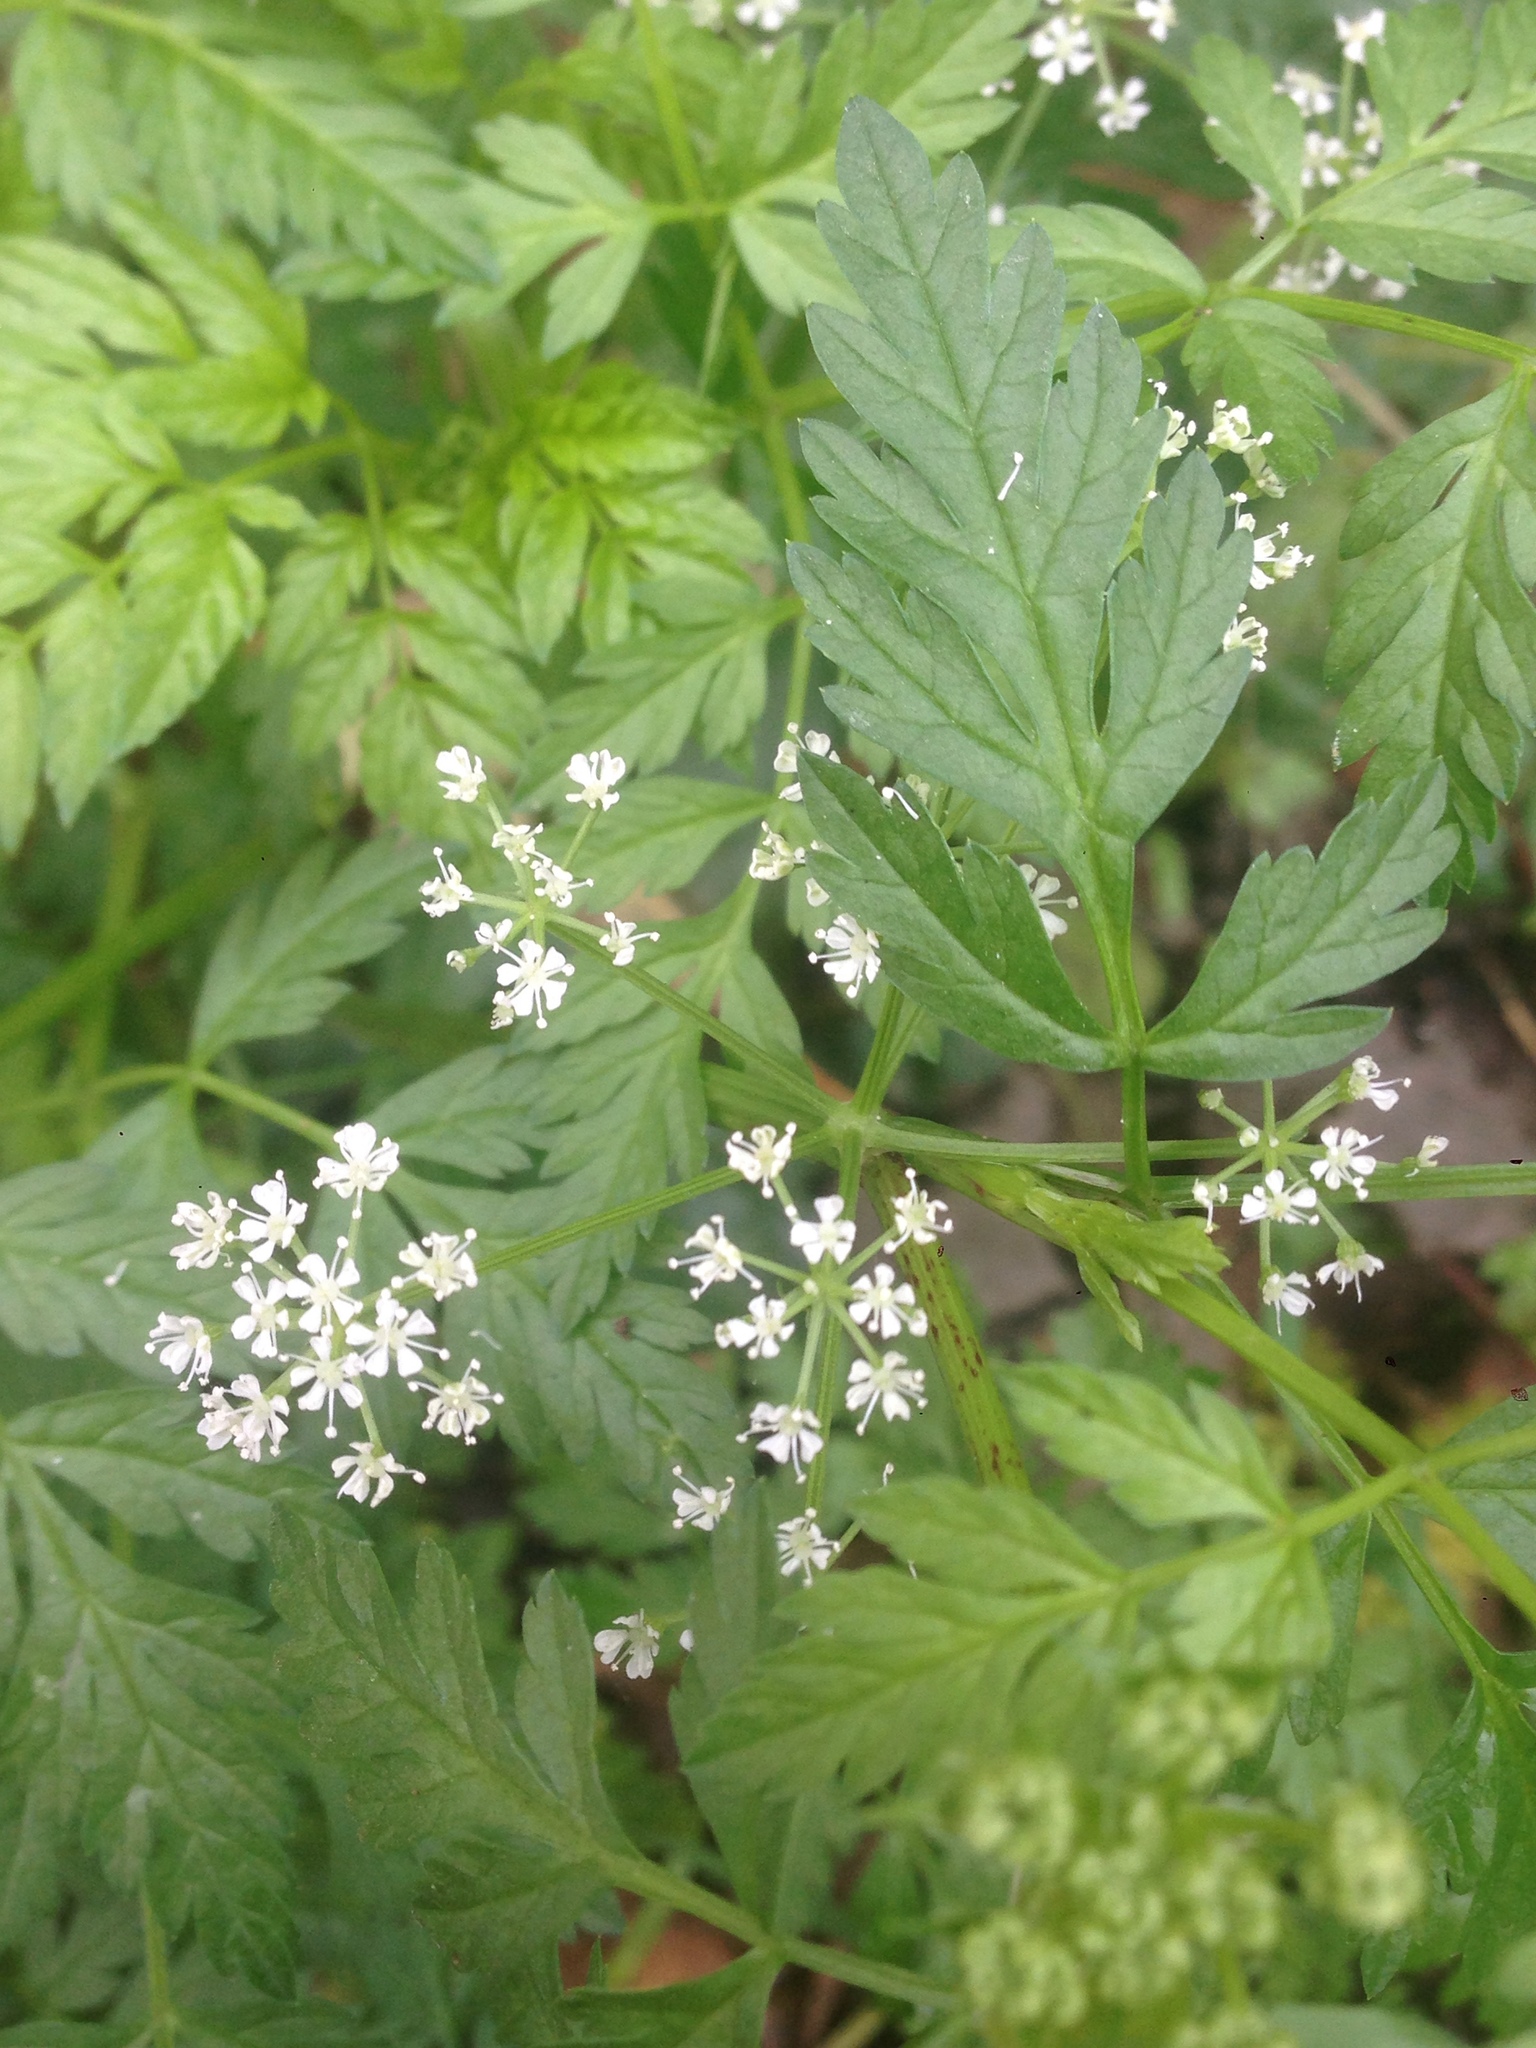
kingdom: Plantae
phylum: Tracheophyta
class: Magnoliopsida
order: Apiales
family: Apiaceae
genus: Conium
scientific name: Conium maculatum
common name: Hemlock
